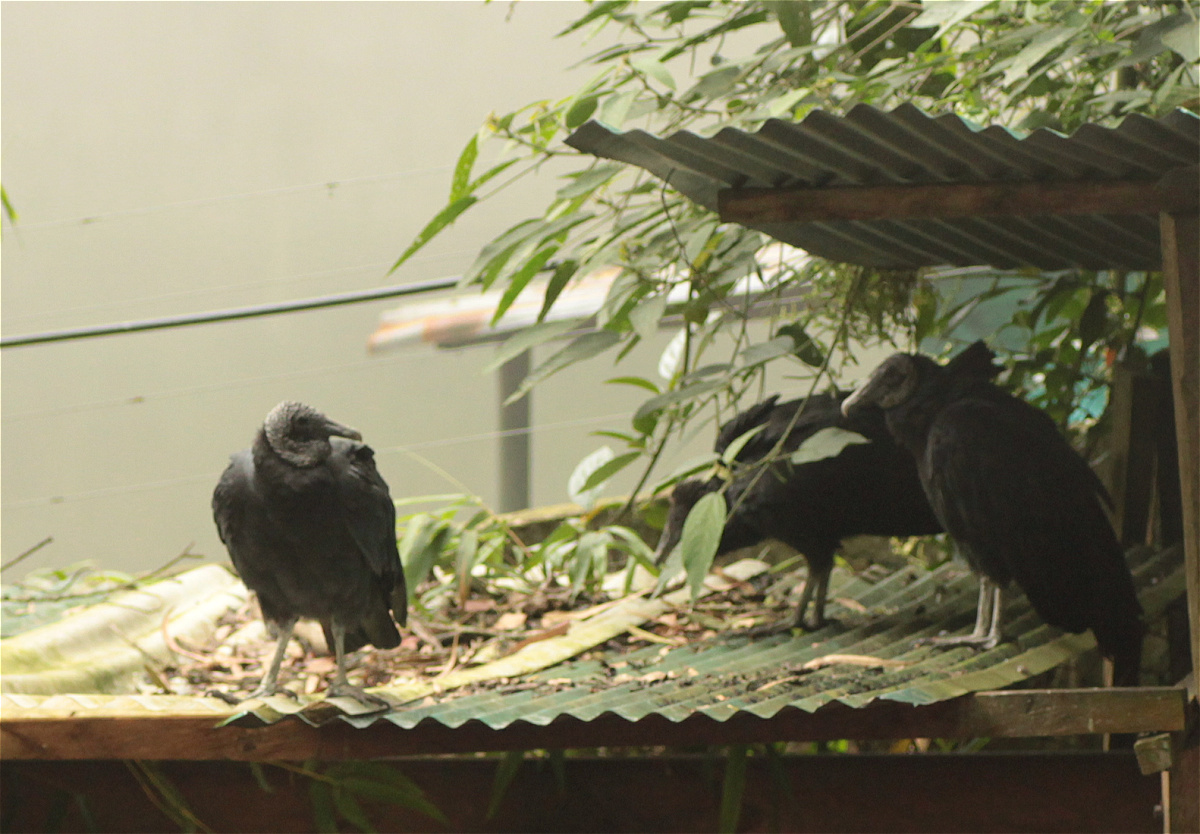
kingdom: Animalia
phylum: Chordata
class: Aves
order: Accipitriformes
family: Cathartidae
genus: Coragyps
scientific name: Coragyps atratus
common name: Black vulture
